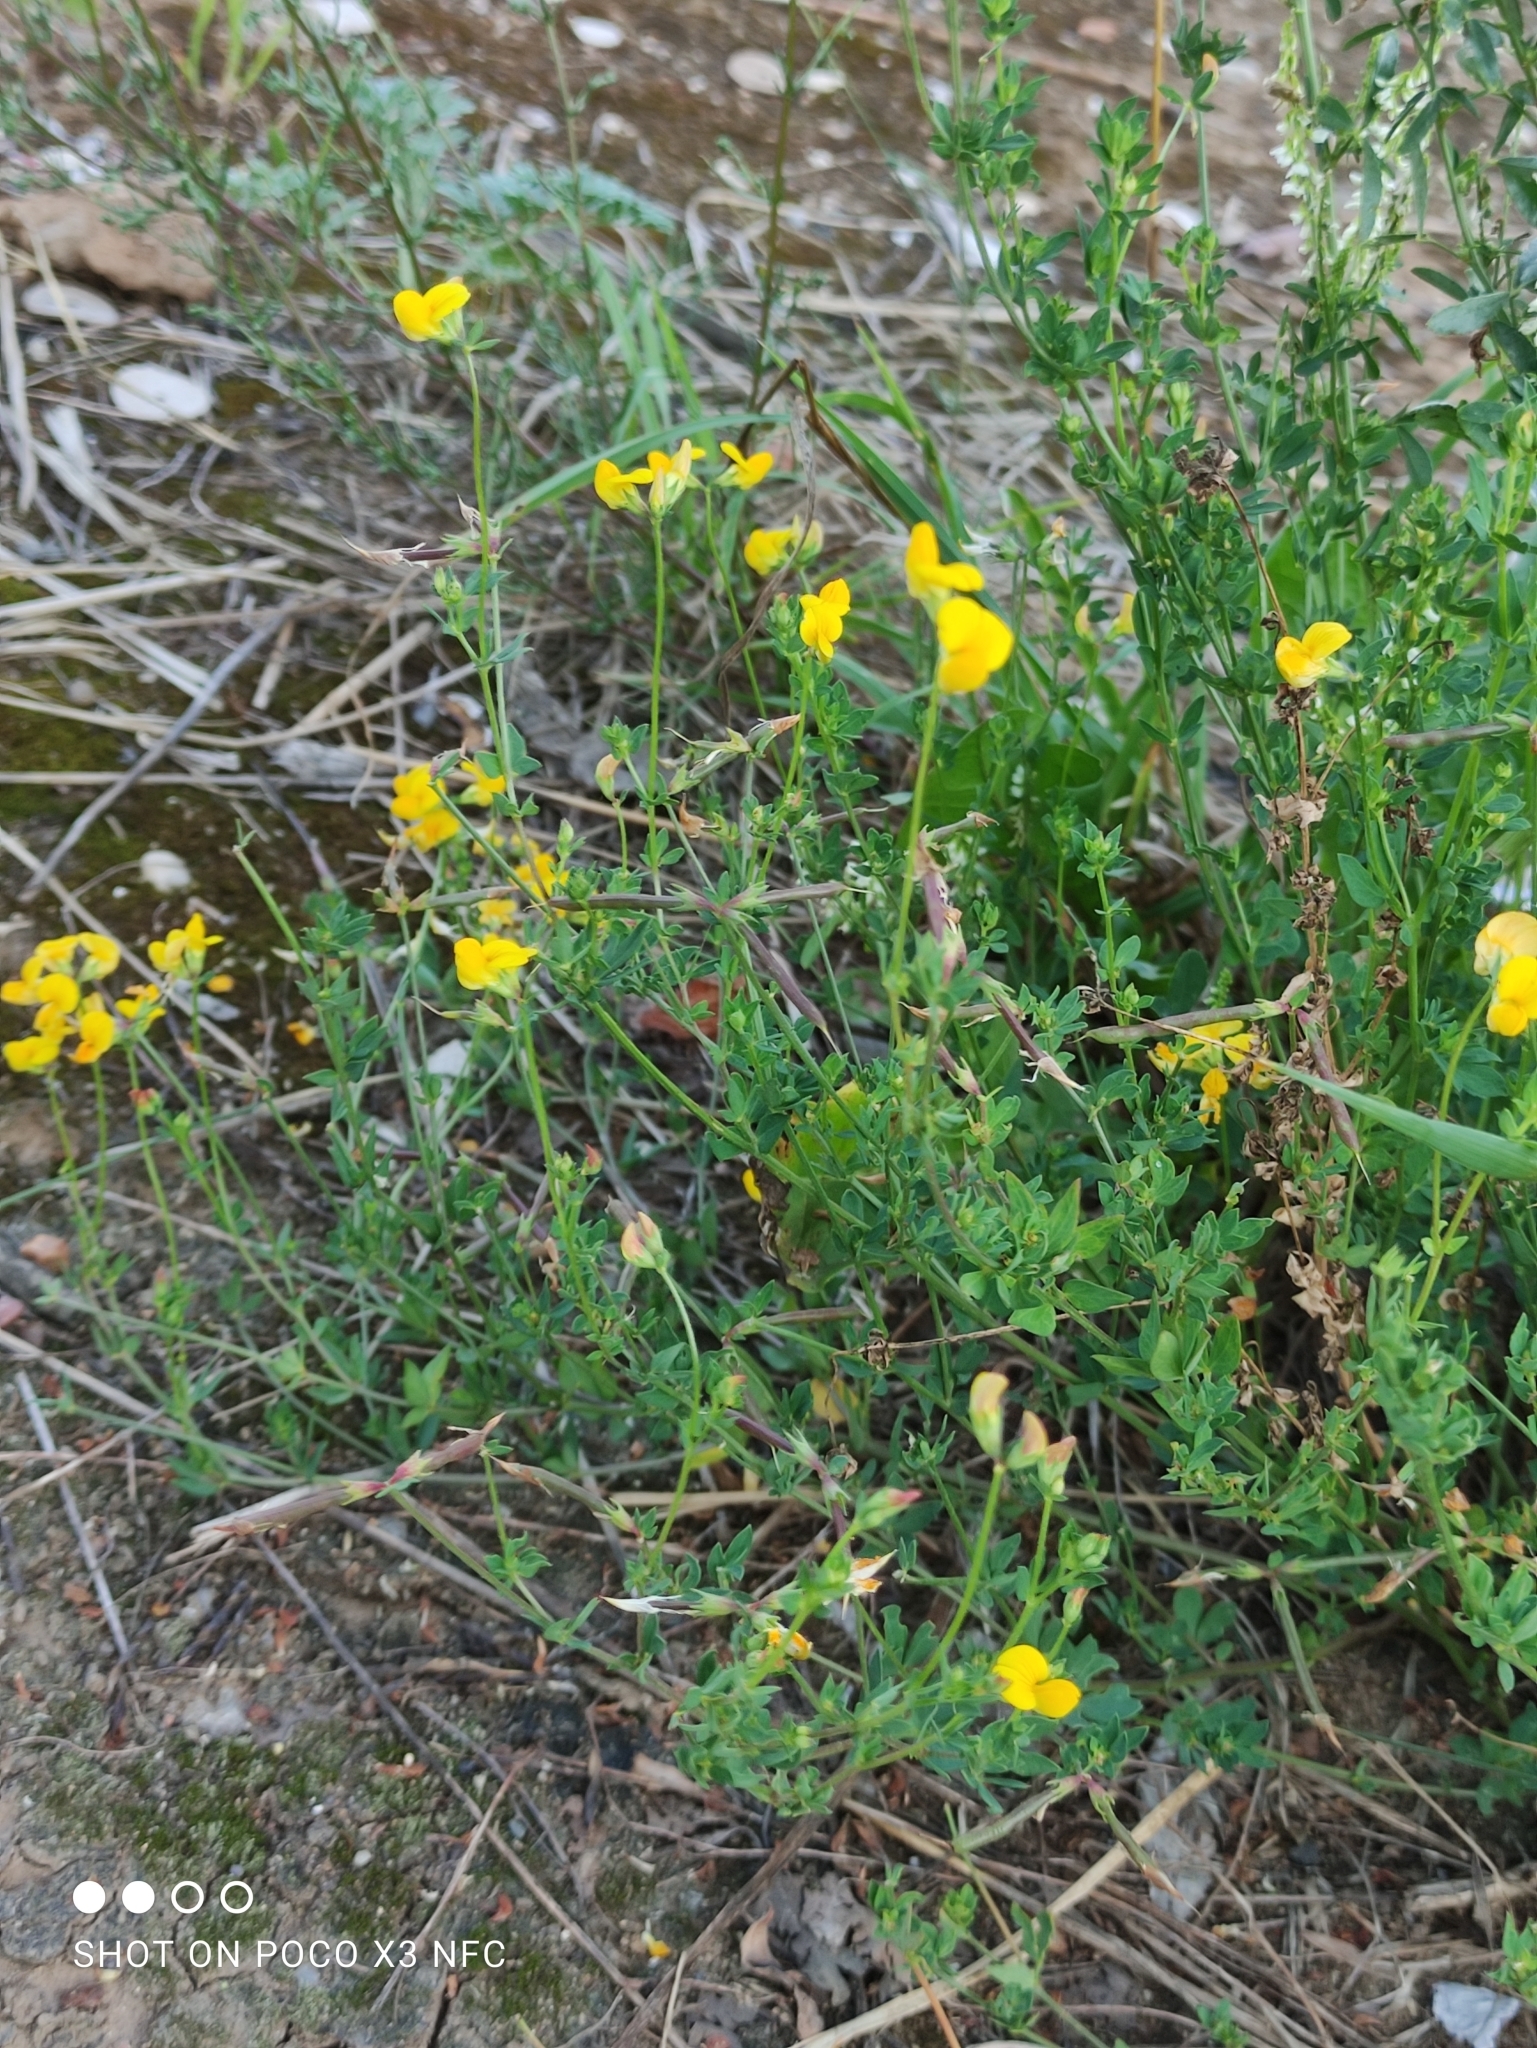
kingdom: Plantae
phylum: Tracheophyta
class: Magnoliopsida
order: Fabales
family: Fabaceae
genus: Lotus
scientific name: Lotus corniculatus
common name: Common bird's-foot-trefoil
